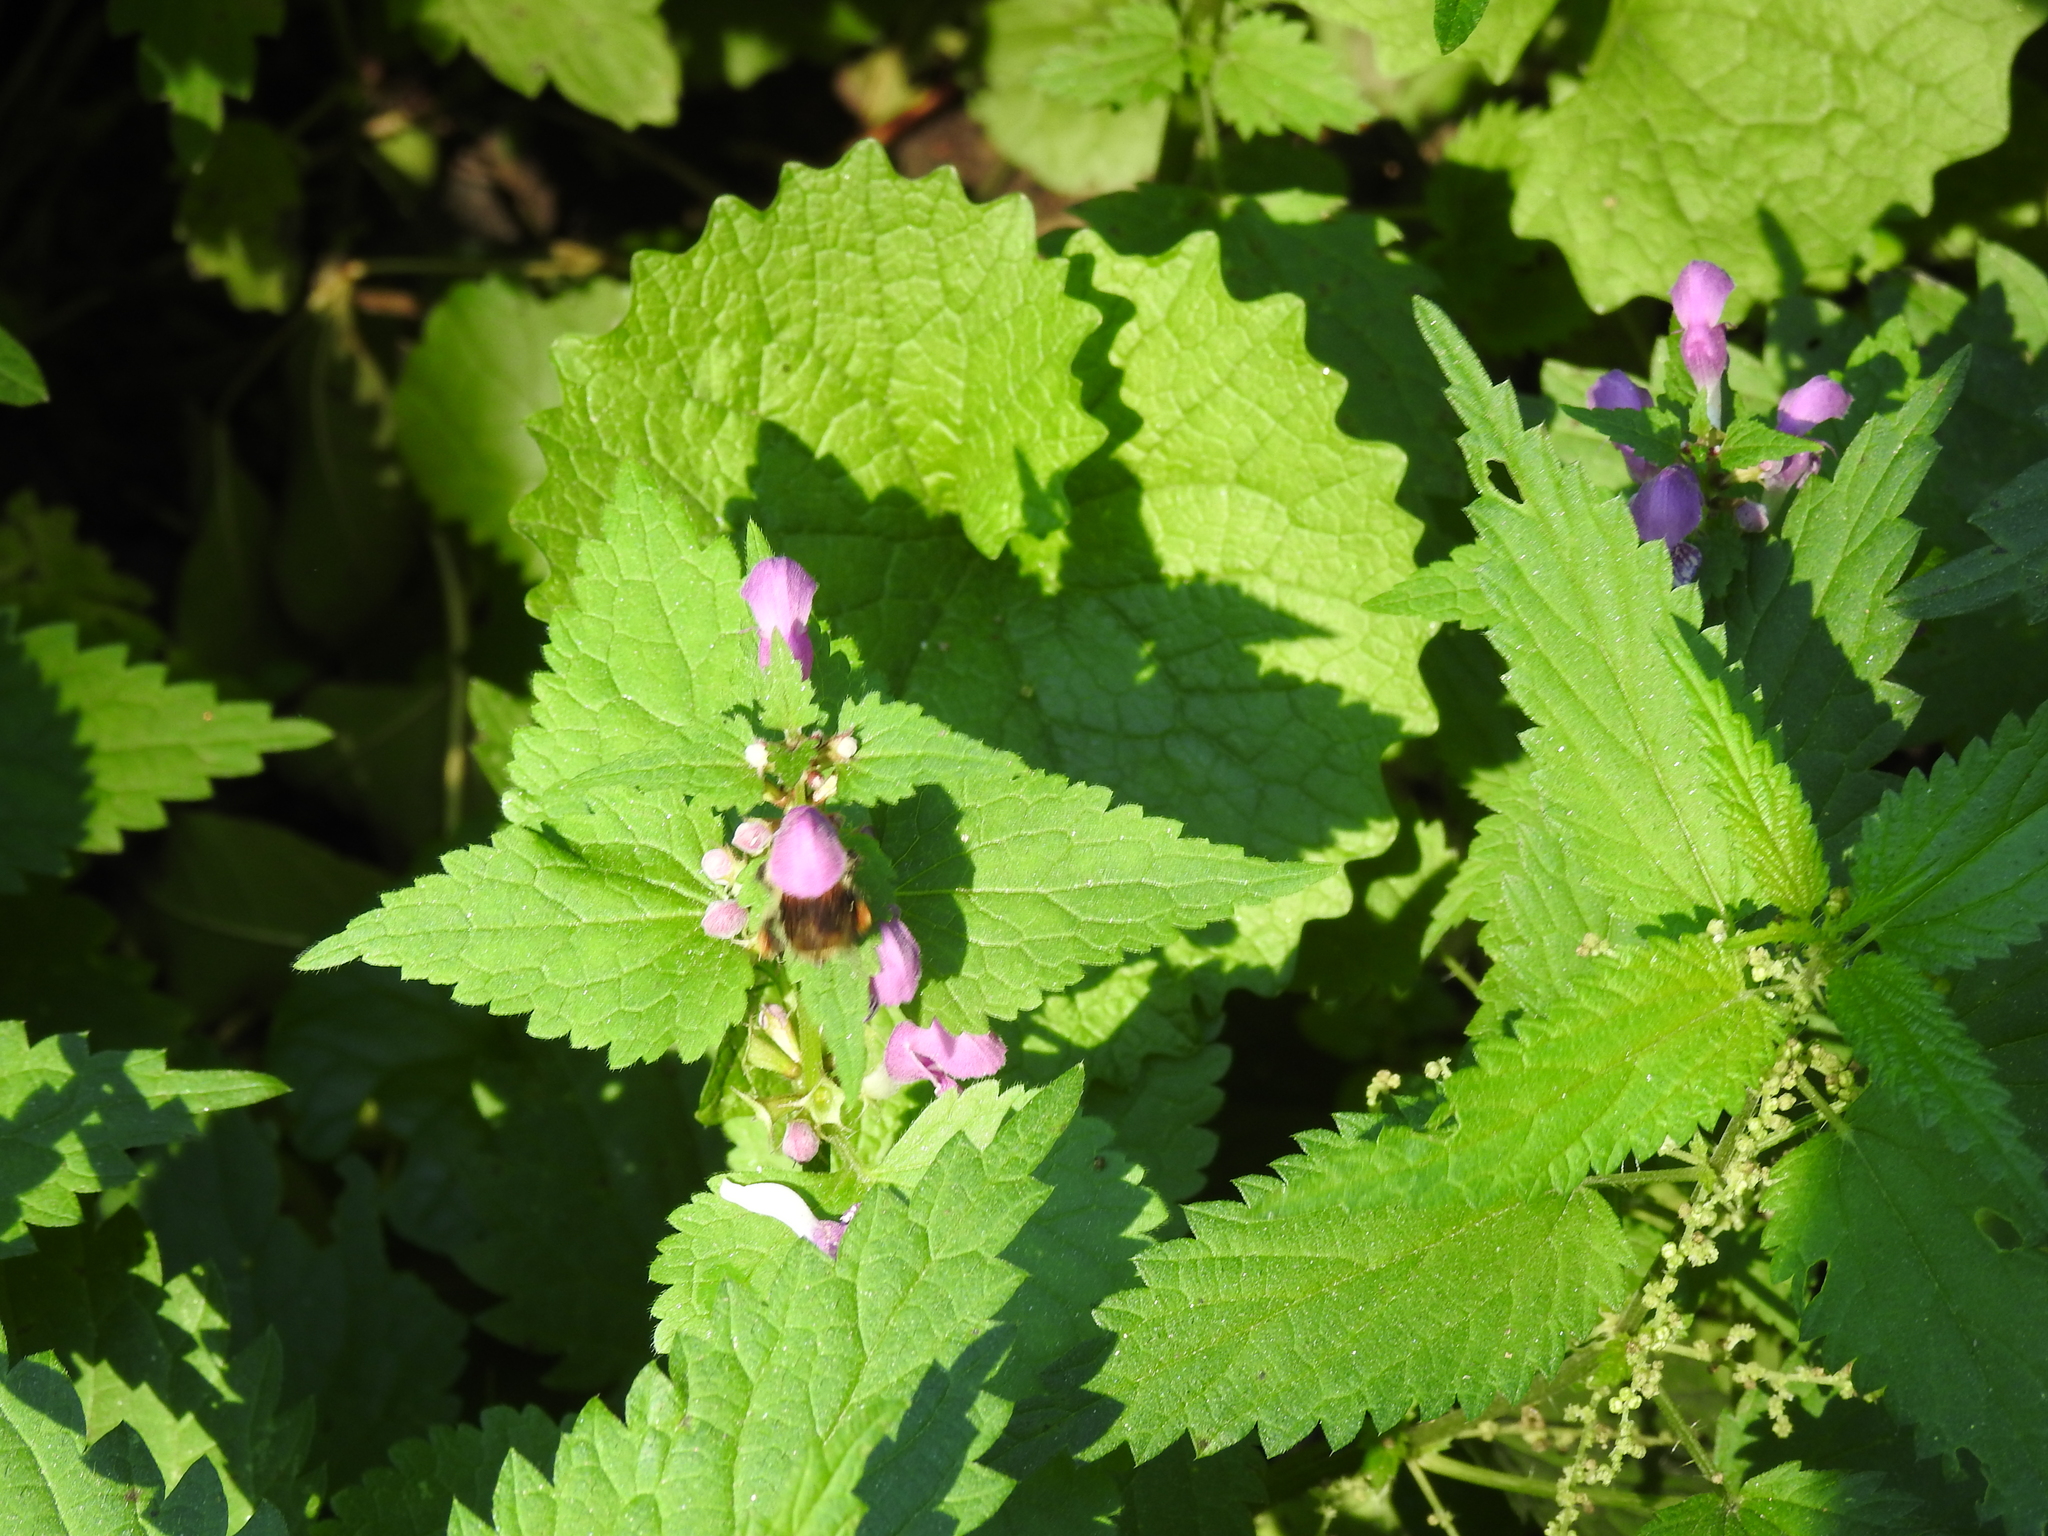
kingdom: Plantae
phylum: Tracheophyta
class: Magnoliopsida
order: Lamiales
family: Lamiaceae
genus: Lamium
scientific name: Lamium maculatum
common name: Spotted dead-nettle
